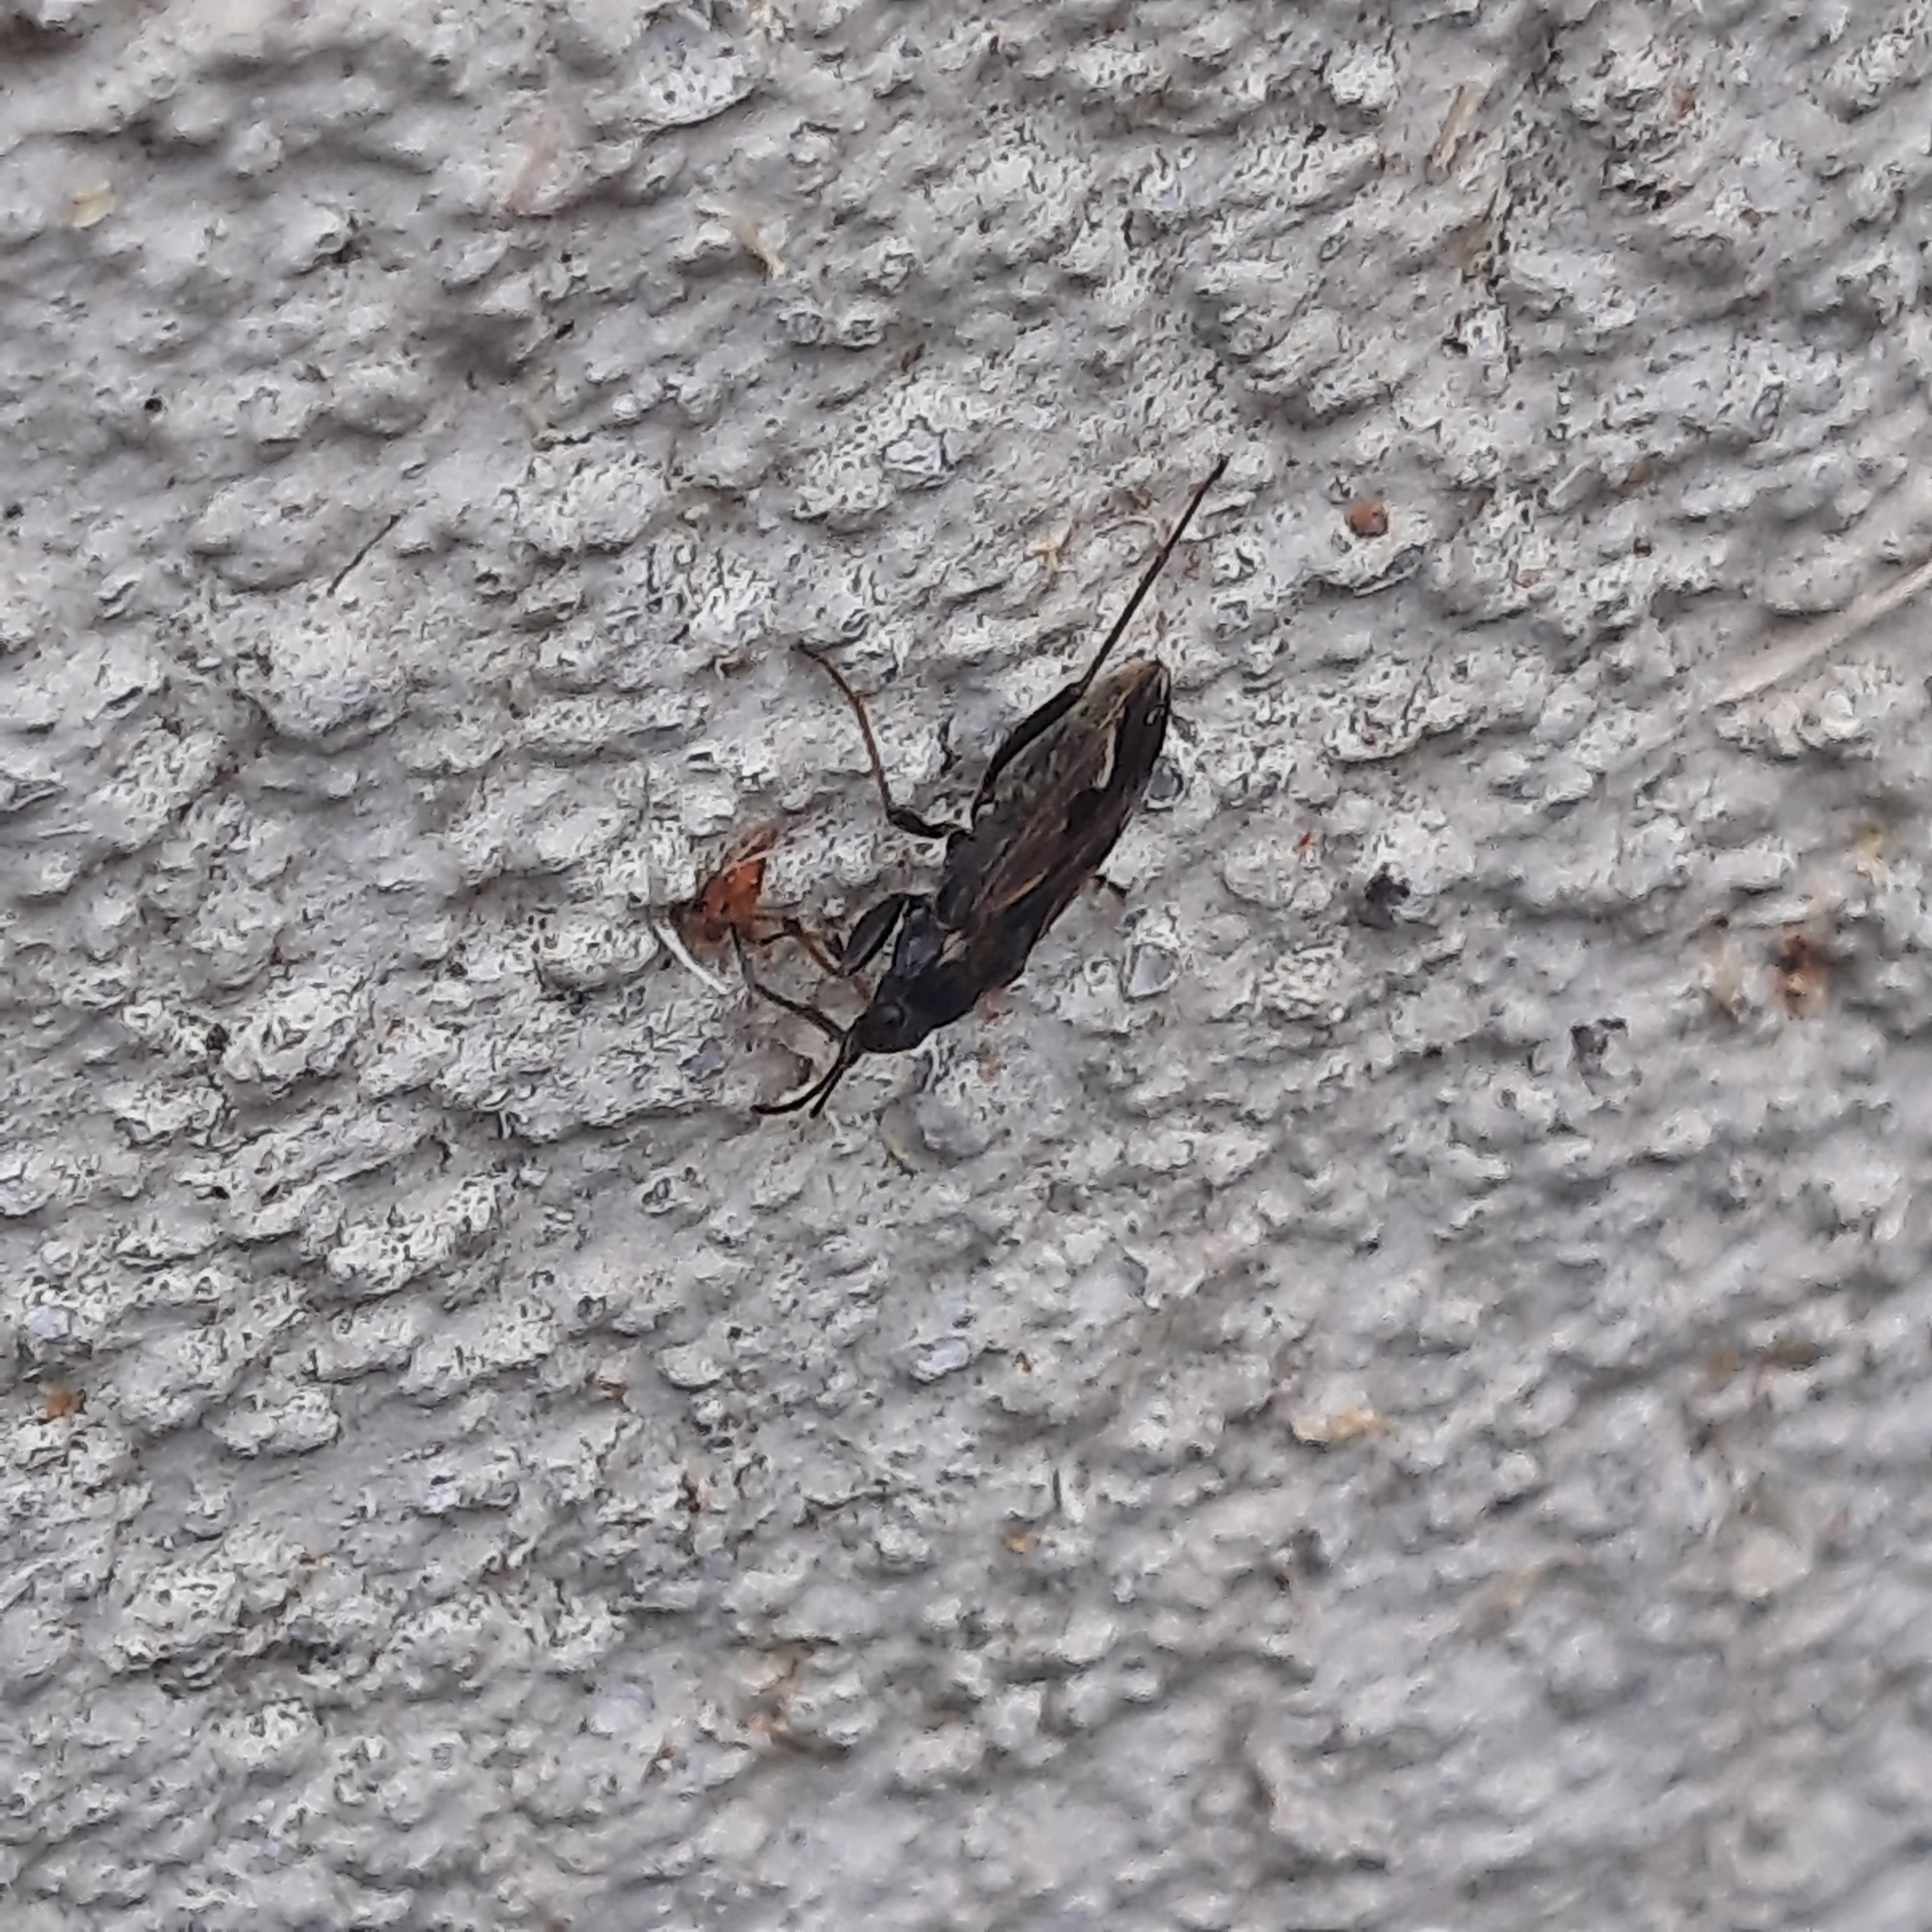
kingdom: Animalia
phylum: Arthropoda
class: Insecta
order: Hemiptera
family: Rhyparochromidae
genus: Rhyparochromus
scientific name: Rhyparochromus vulgaris
